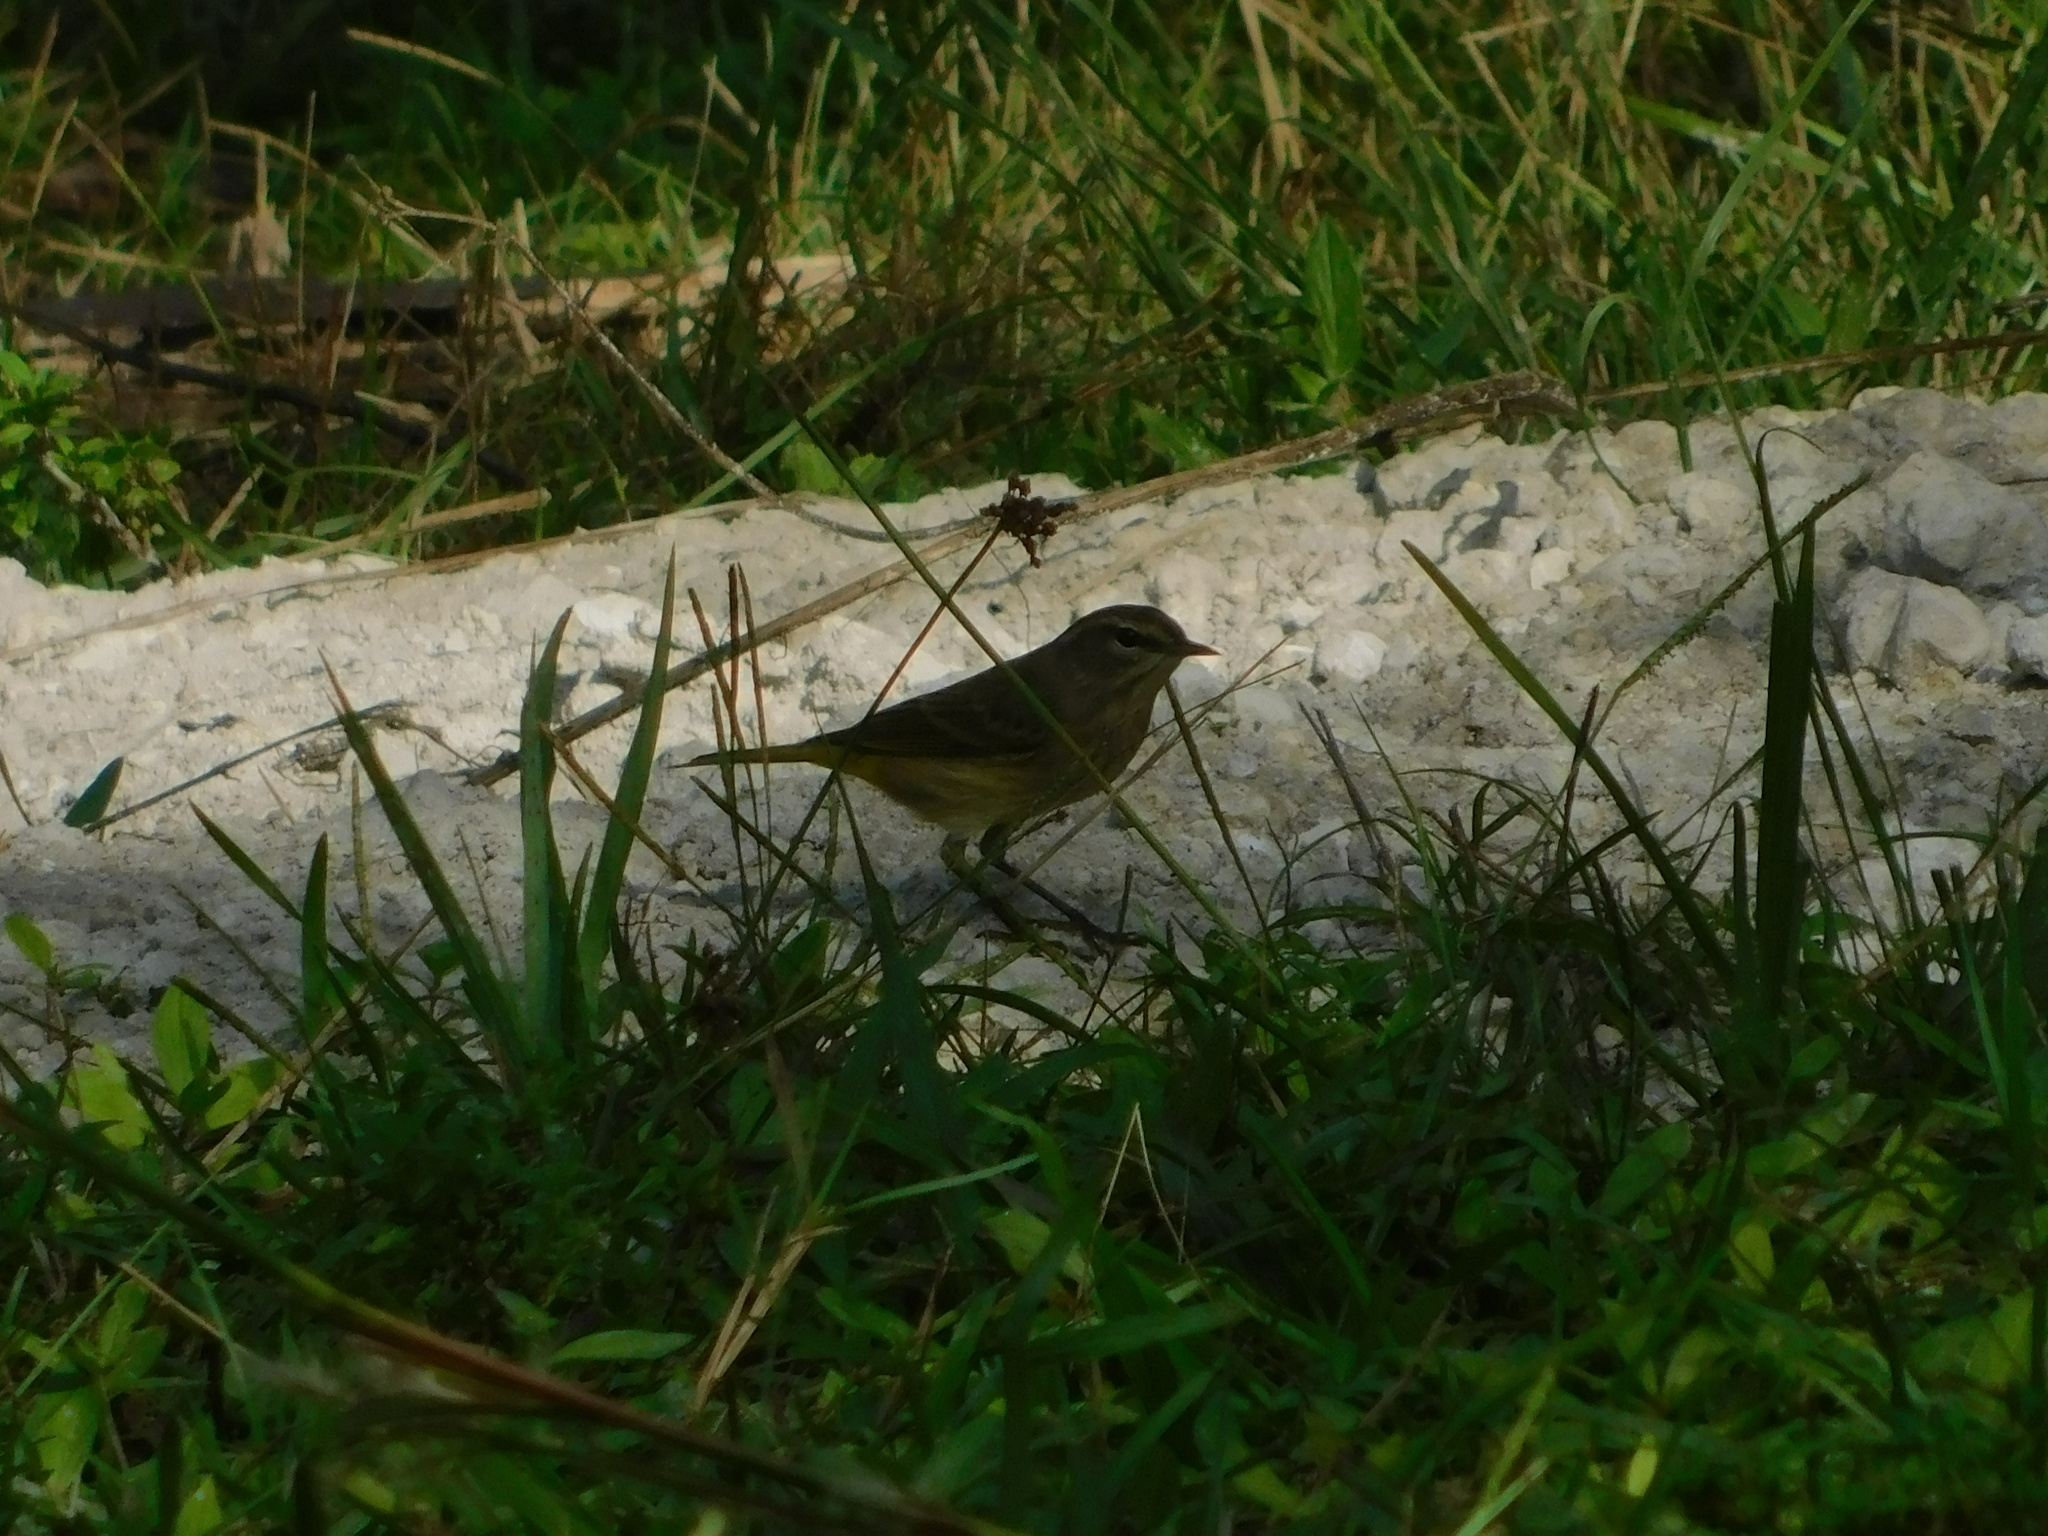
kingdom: Animalia
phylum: Chordata
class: Aves
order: Passeriformes
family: Parulidae
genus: Setophaga
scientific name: Setophaga palmarum
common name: Palm warbler
